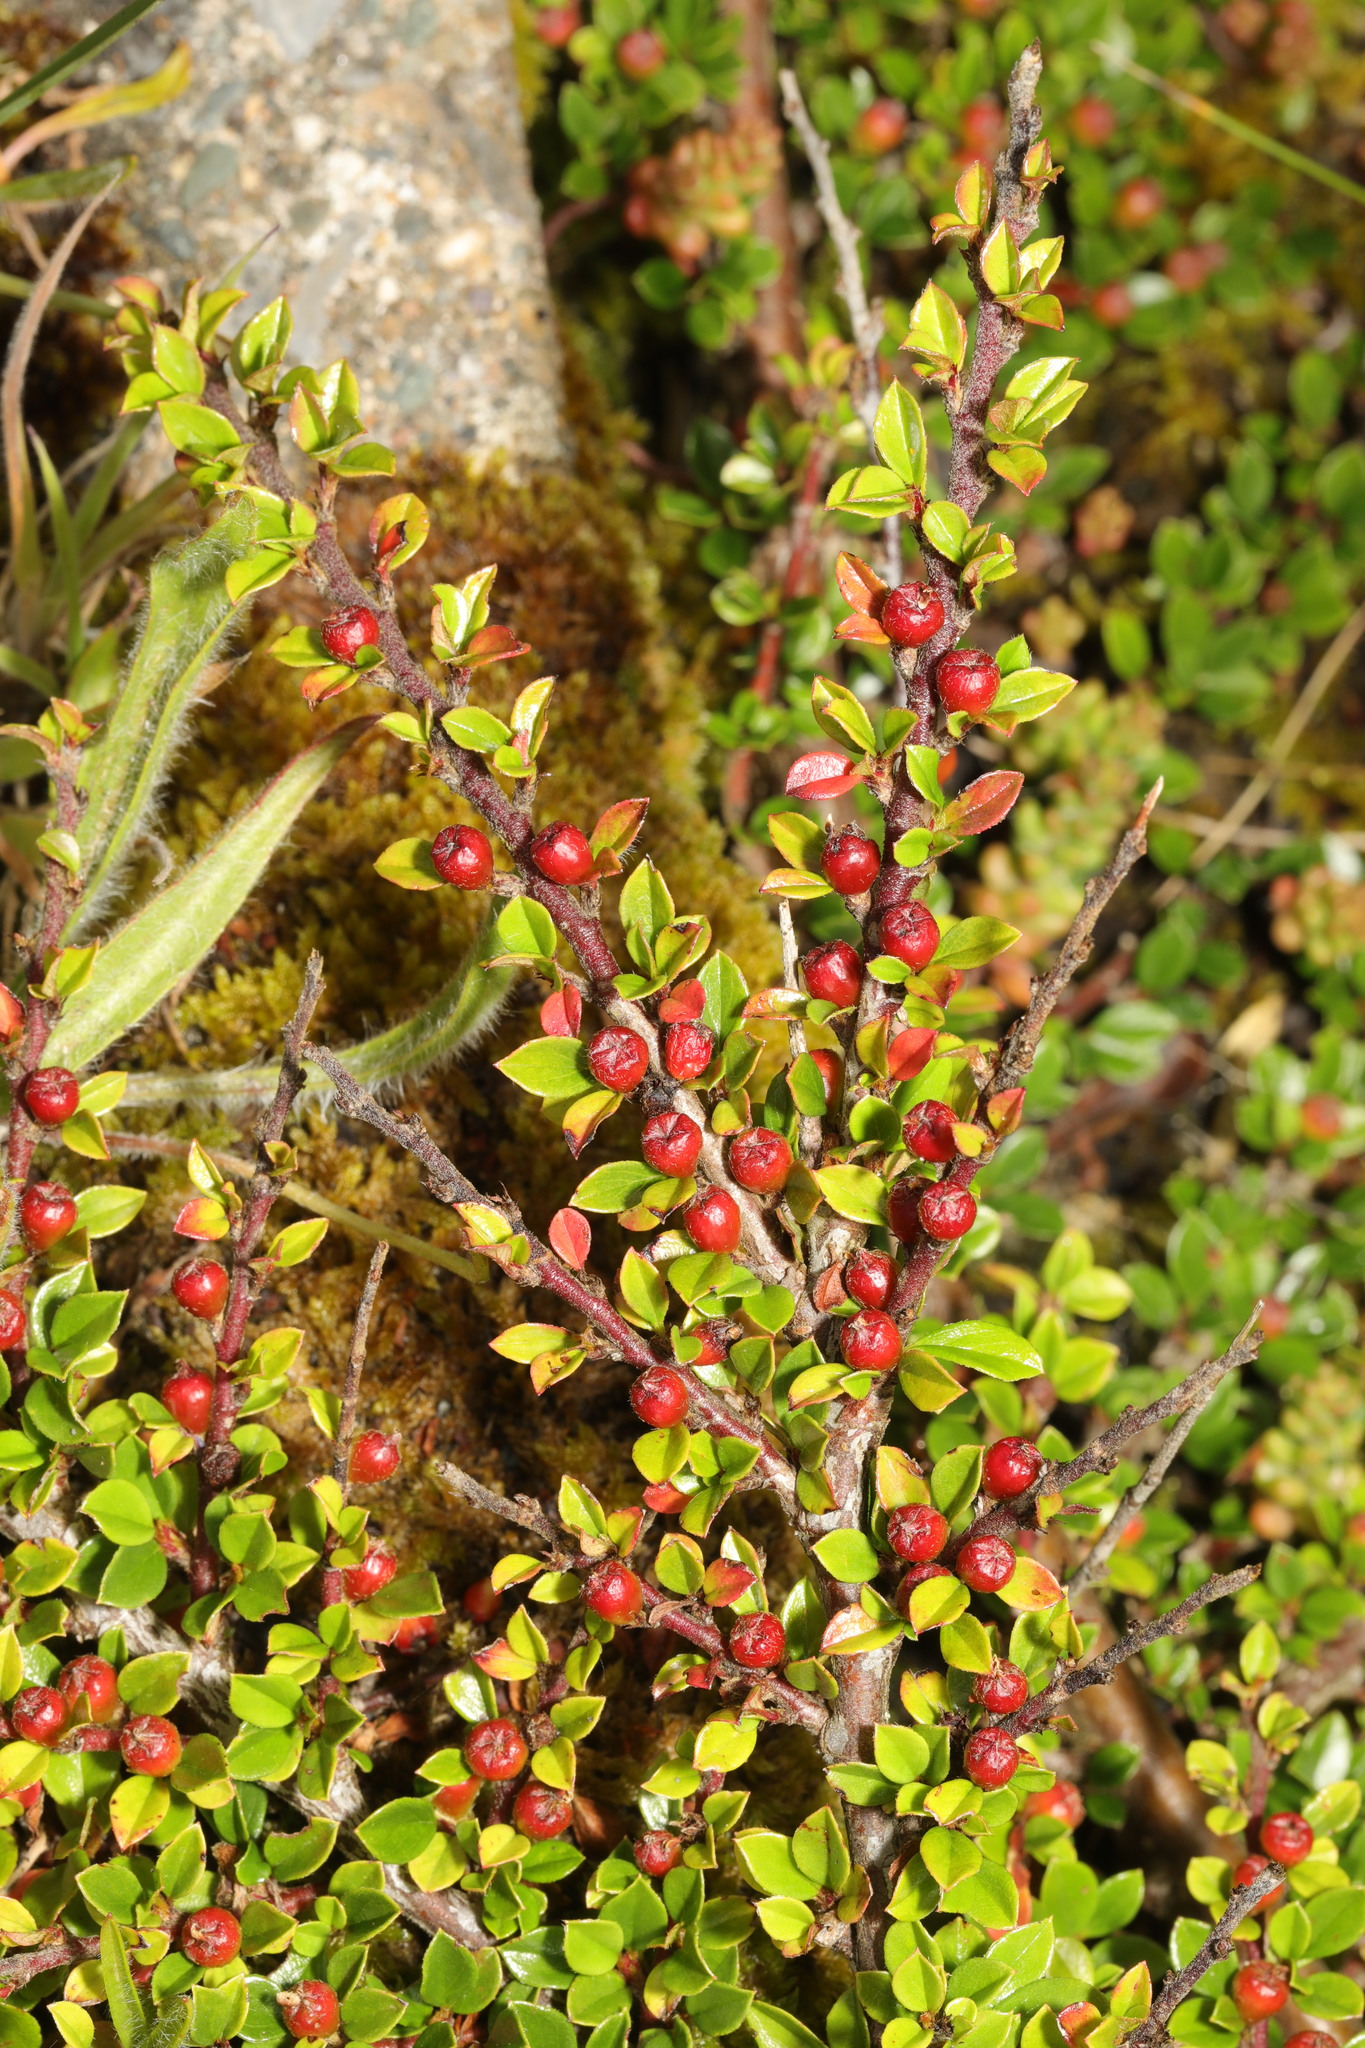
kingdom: Plantae
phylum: Tracheophyta
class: Magnoliopsida
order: Rosales
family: Rosaceae
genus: Cotoneaster
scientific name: Cotoneaster horizontalis
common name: Wall cotoneaster
